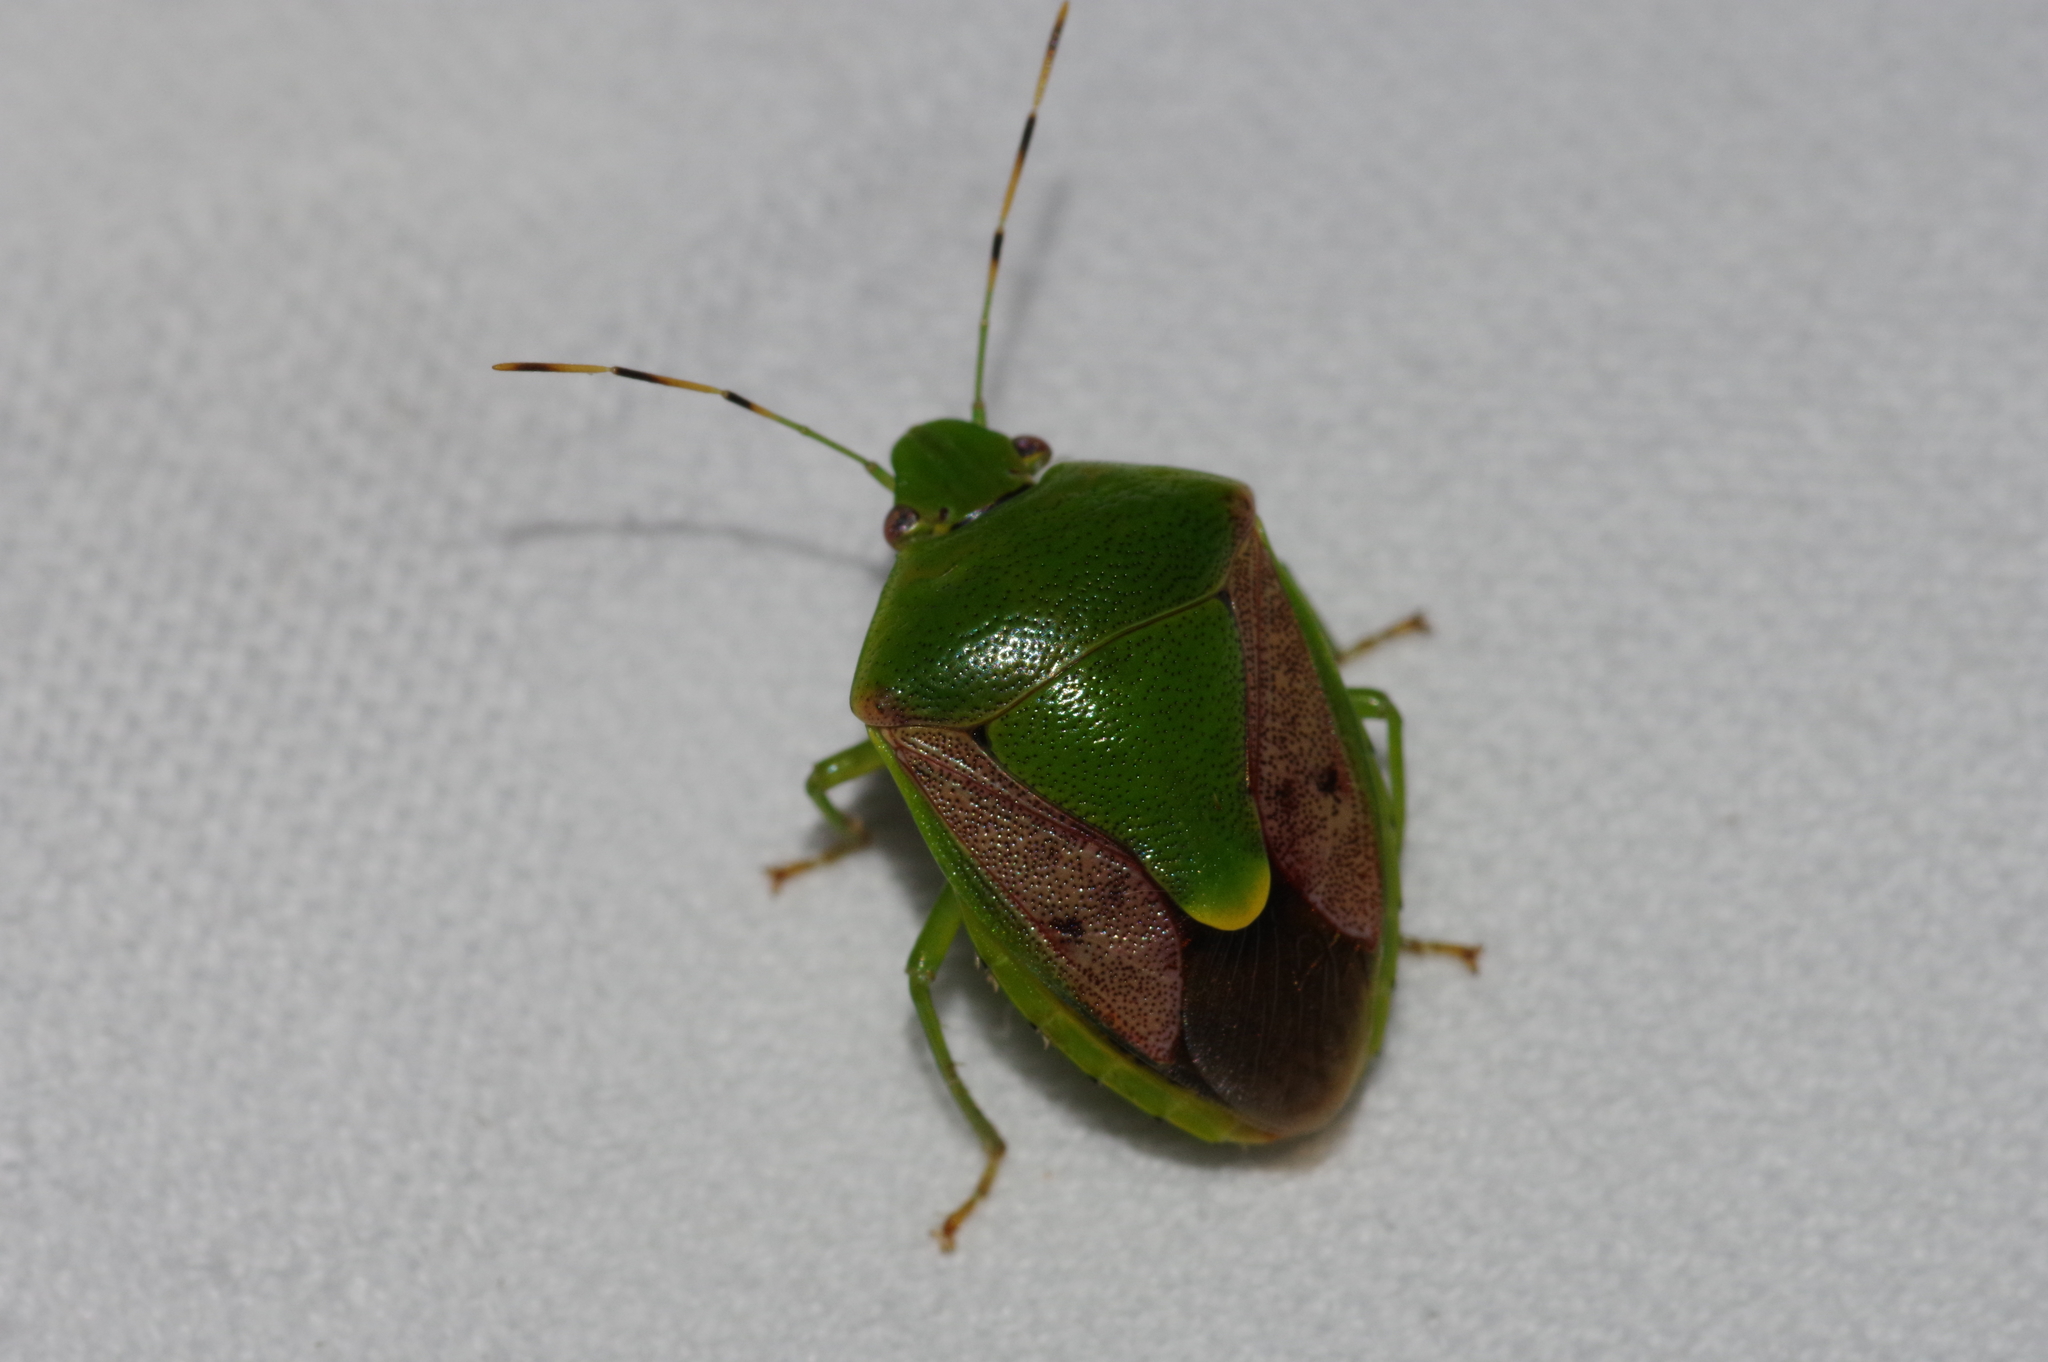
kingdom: Animalia
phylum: Arthropoda
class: Insecta
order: Hemiptera
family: Pentatomidae
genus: Plautia
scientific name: Plautia stali
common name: Stink bug
